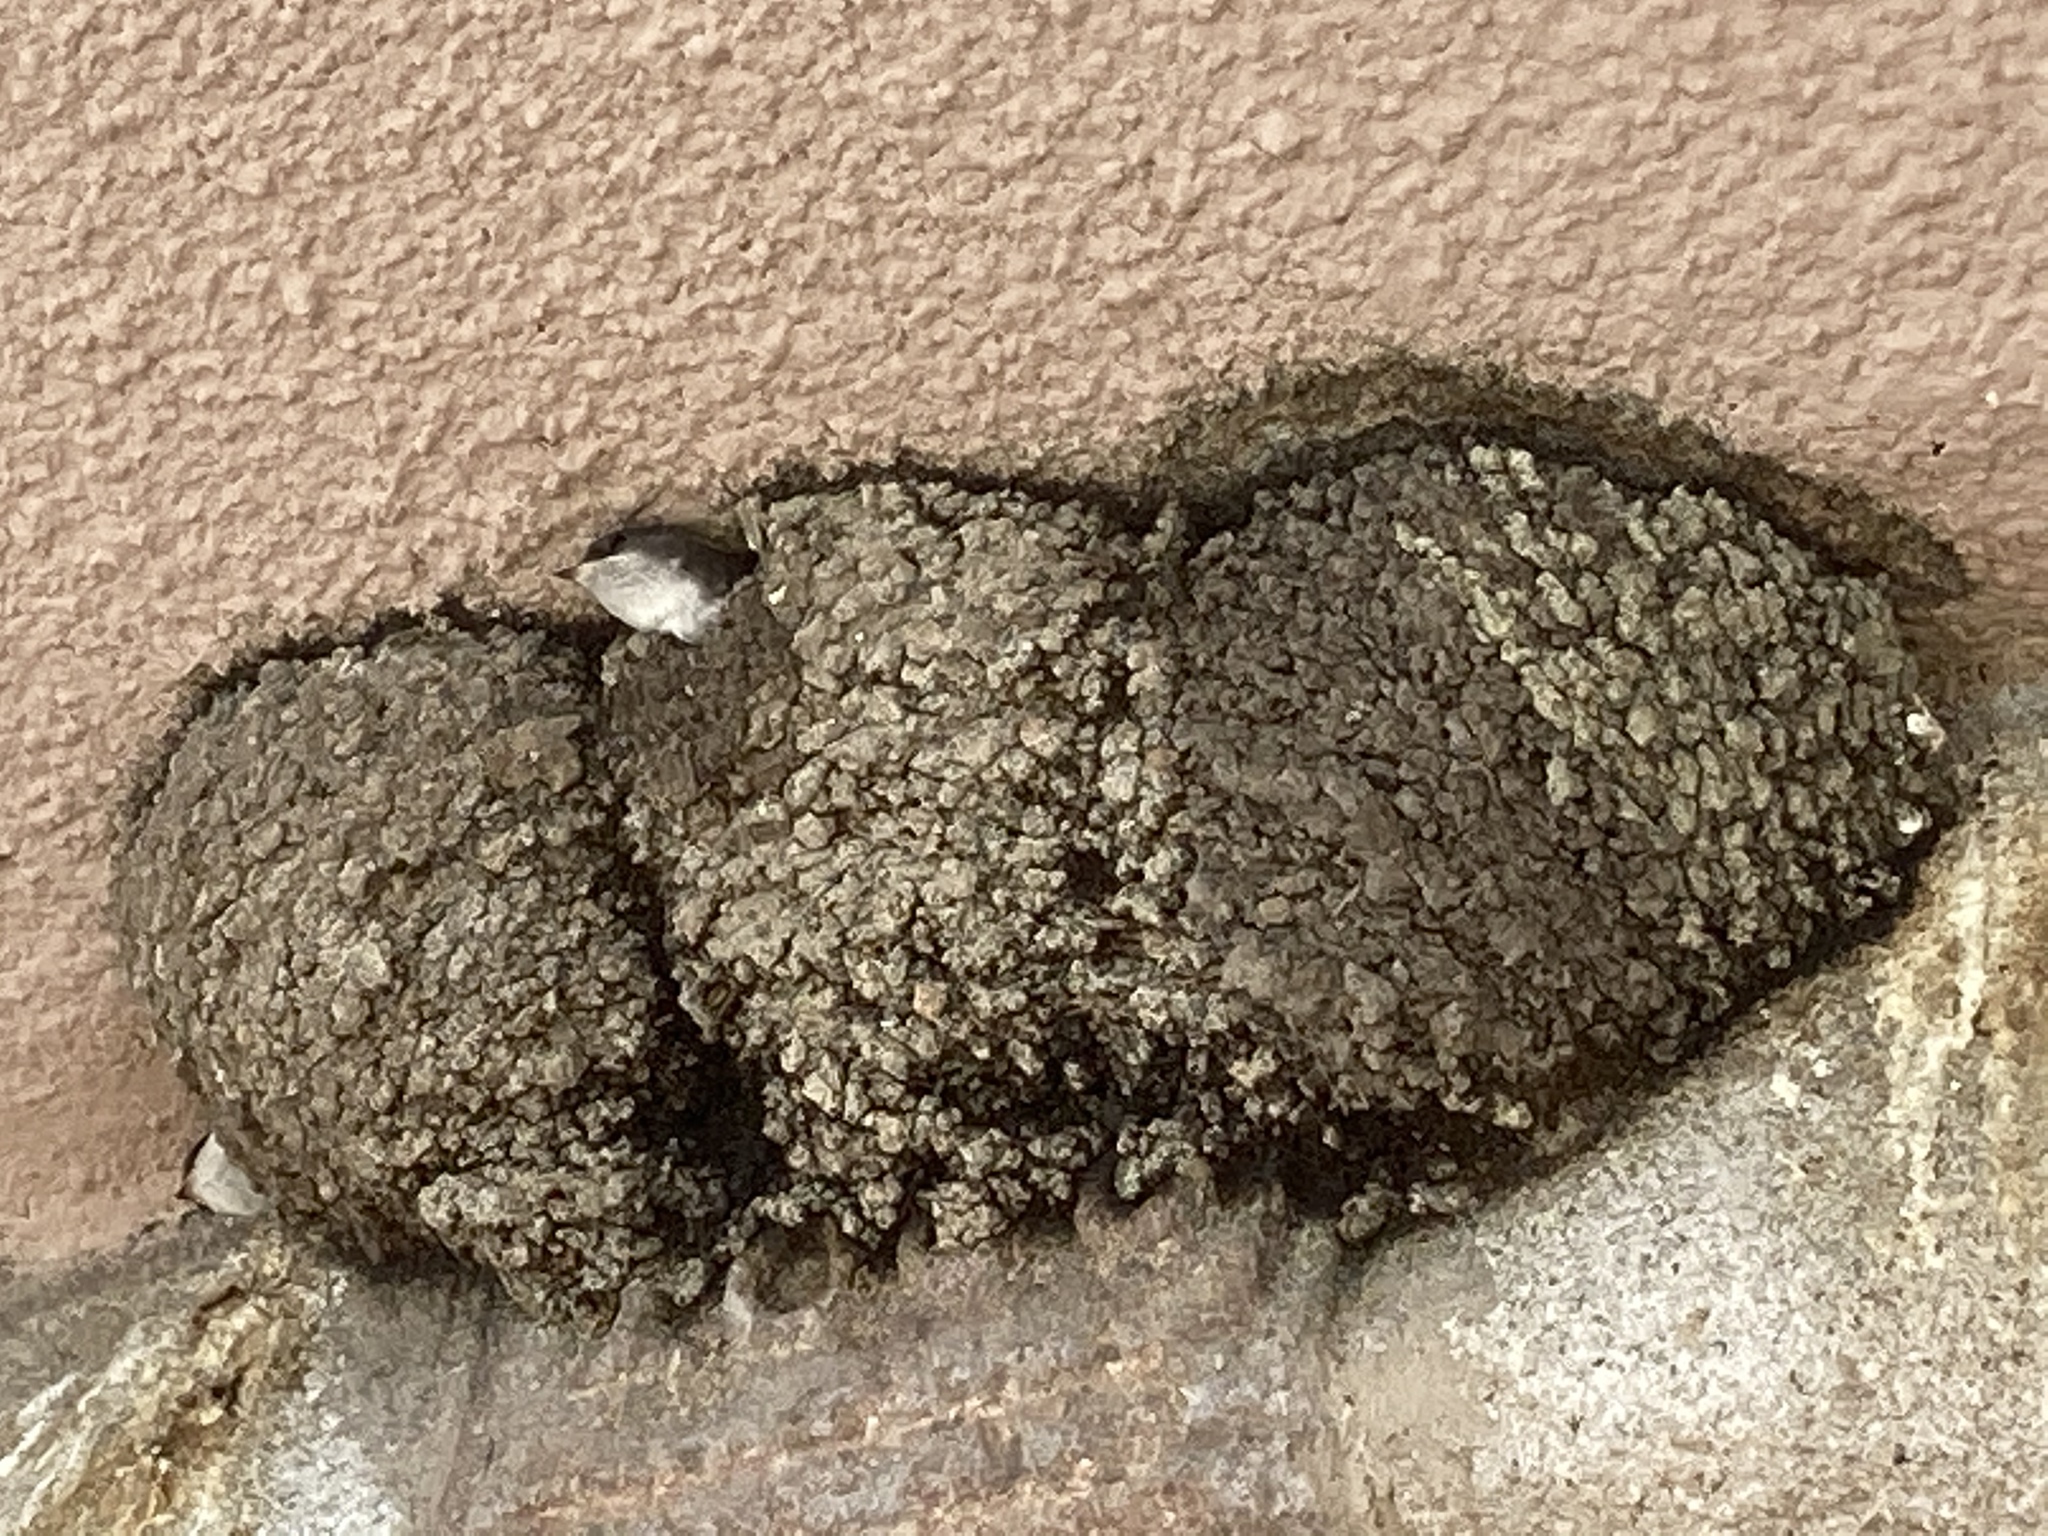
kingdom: Animalia
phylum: Chordata
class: Aves
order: Passeriformes
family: Hirundinidae
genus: Delichon
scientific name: Delichon urbicum
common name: Common house martin
